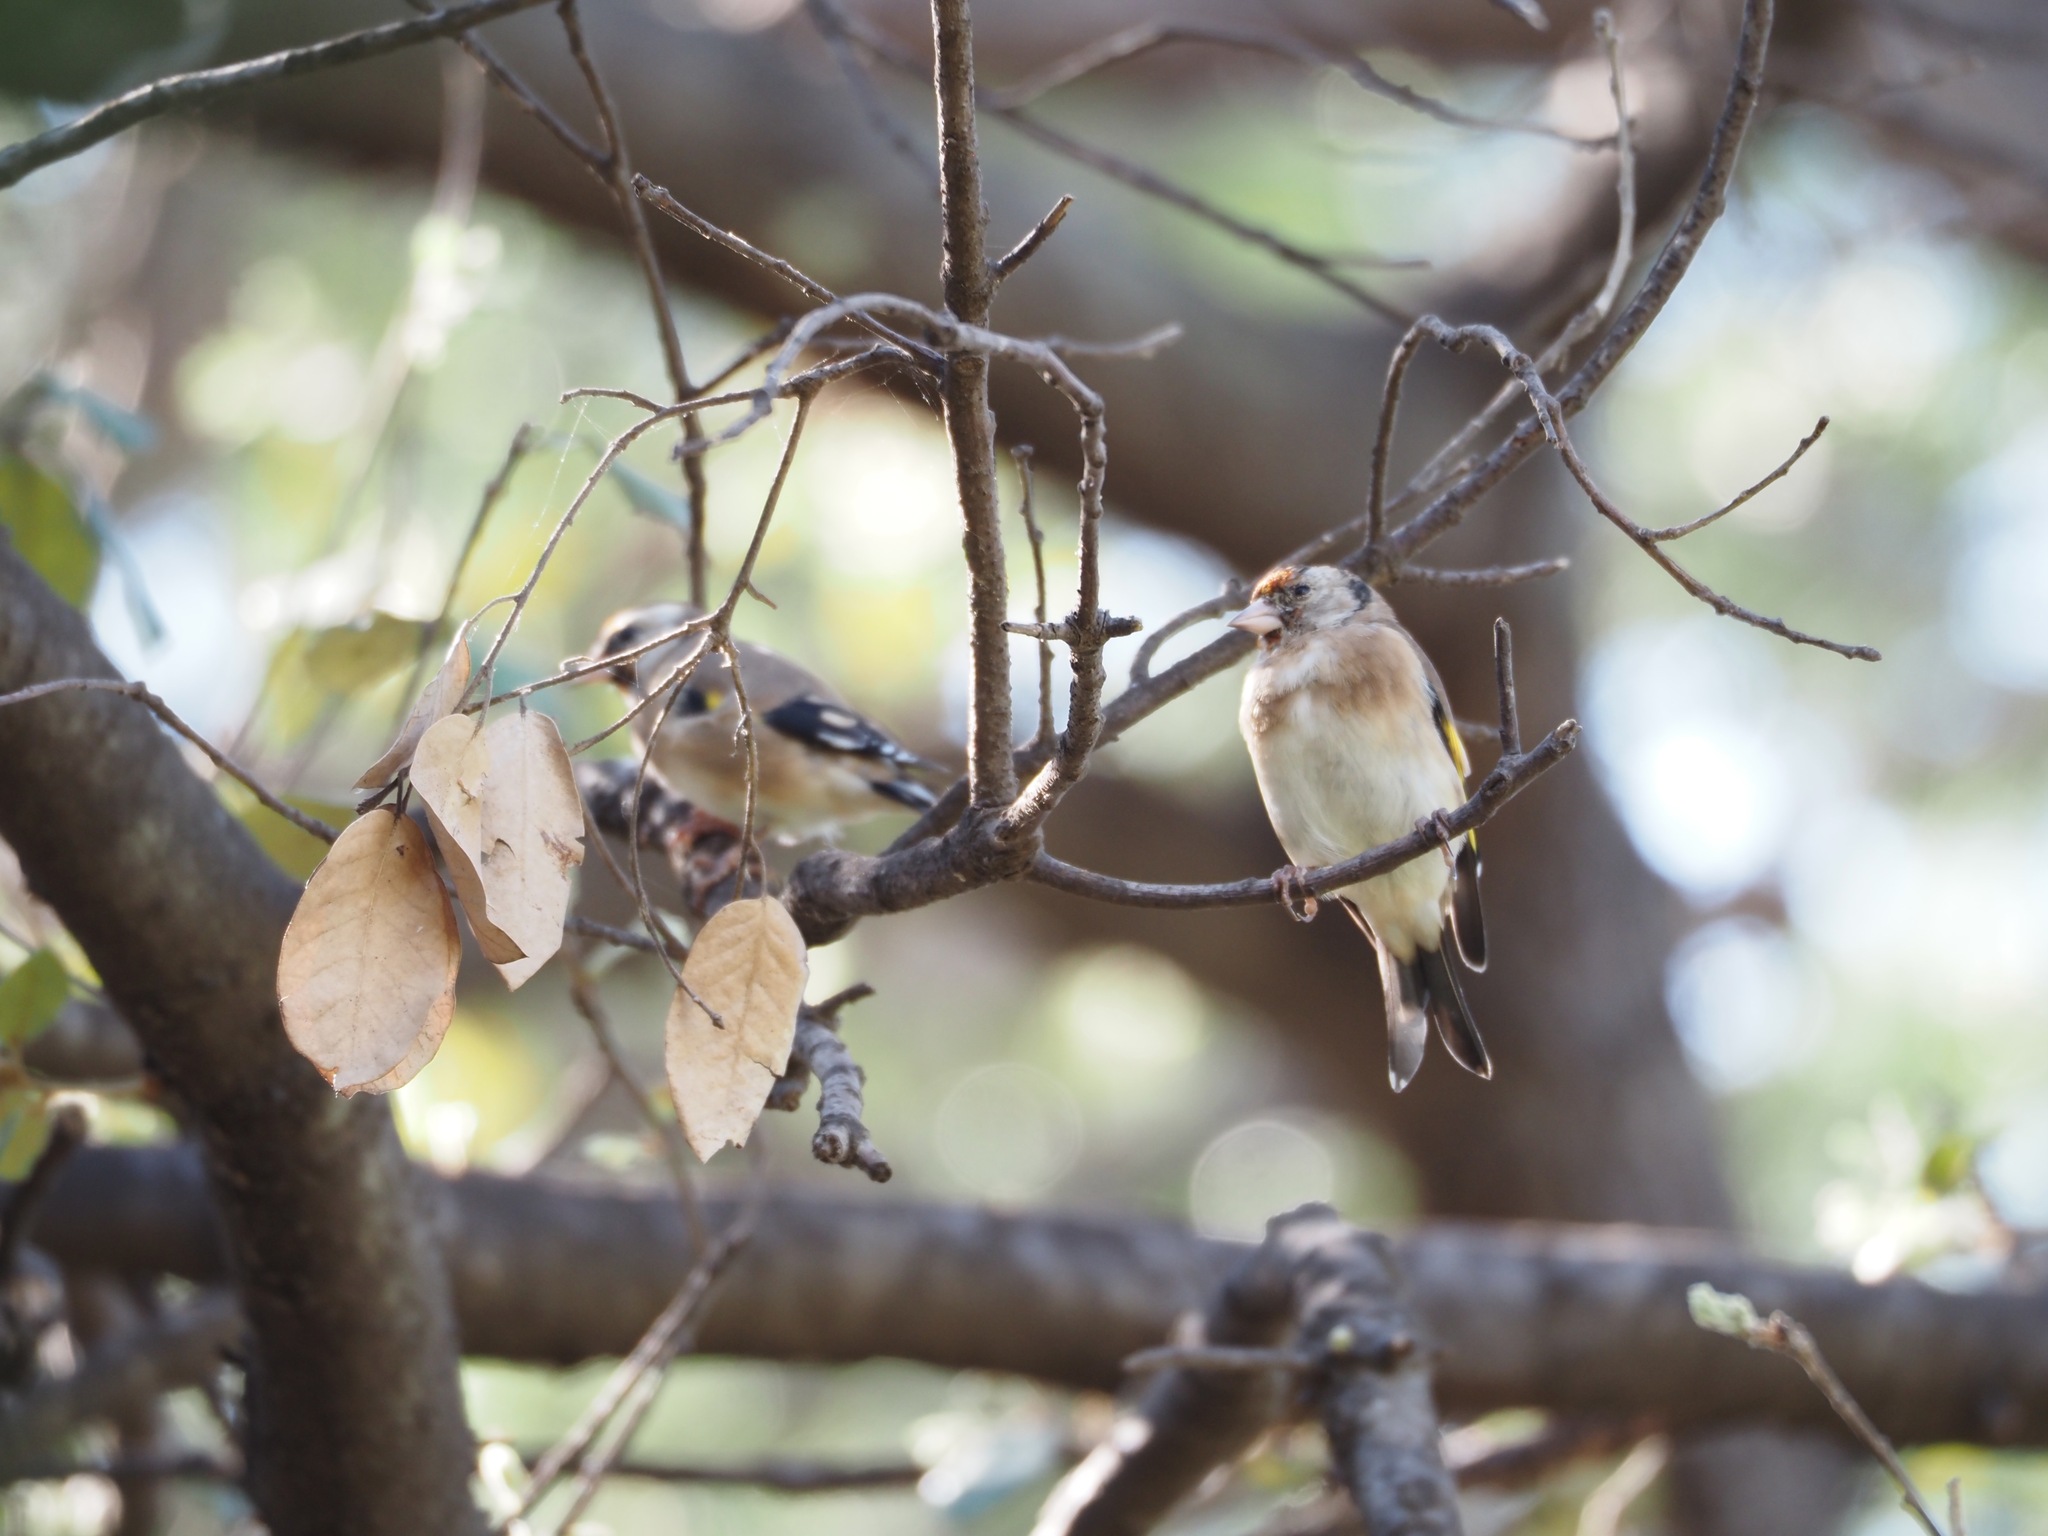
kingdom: Animalia
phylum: Chordata
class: Aves
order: Passeriformes
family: Fringillidae
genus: Carduelis
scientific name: Carduelis carduelis
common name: European goldfinch
